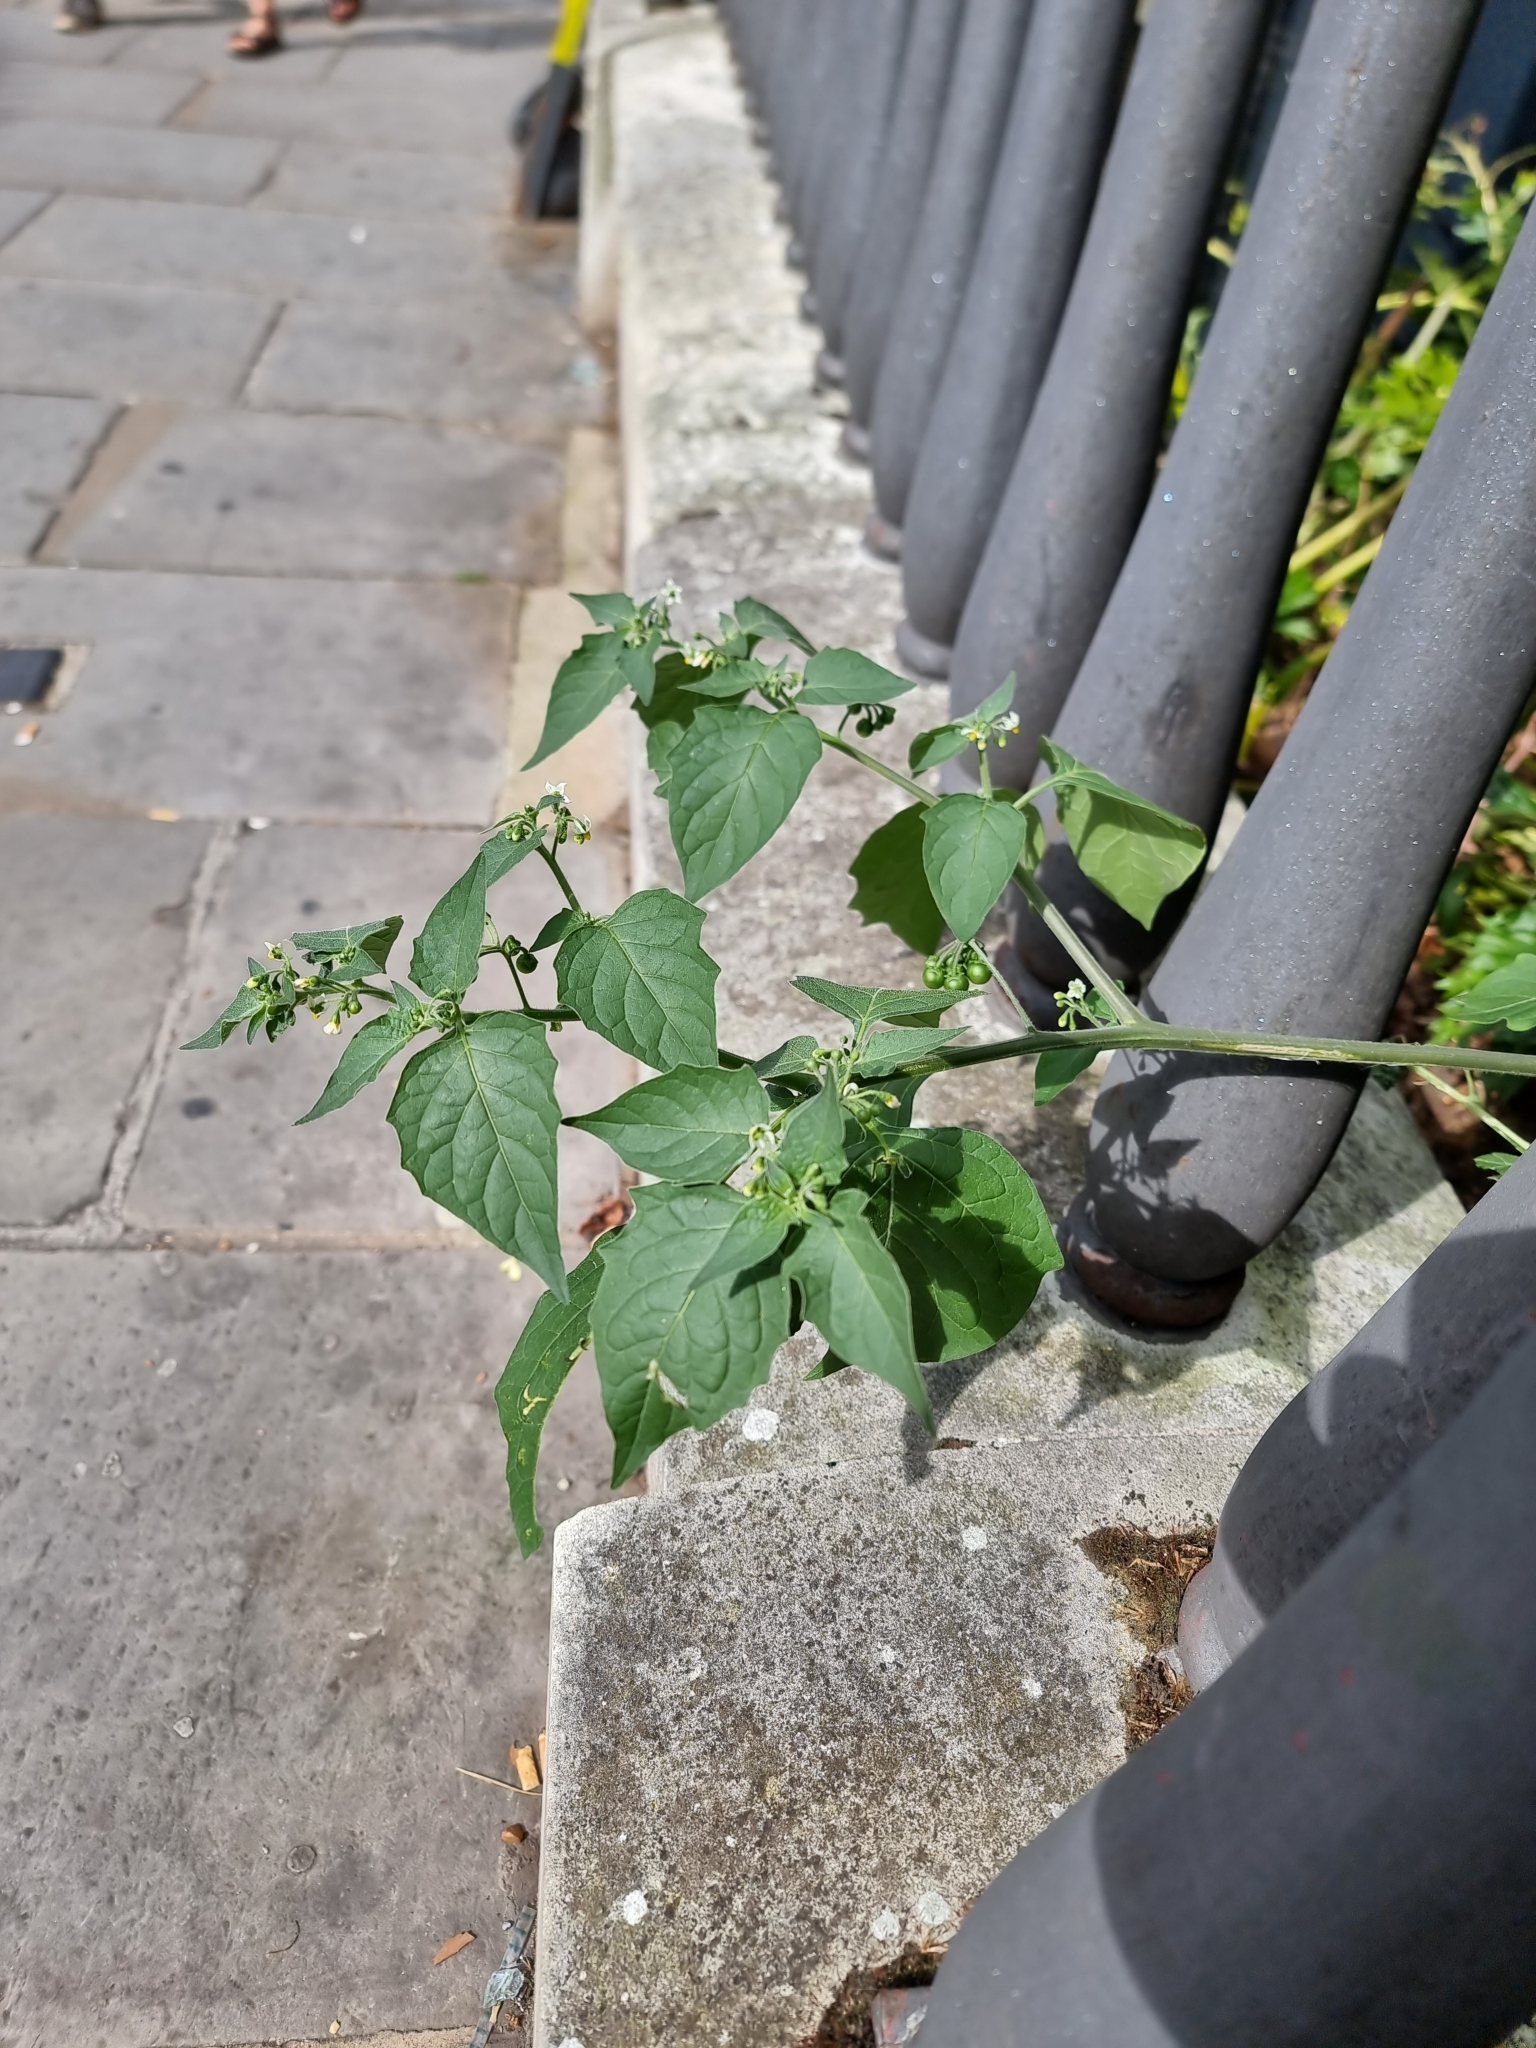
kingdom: Plantae
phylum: Tracheophyta
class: Magnoliopsida
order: Solanales
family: Solanaceae
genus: Solanum
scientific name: Solanum nigrum
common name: Black nightshade
